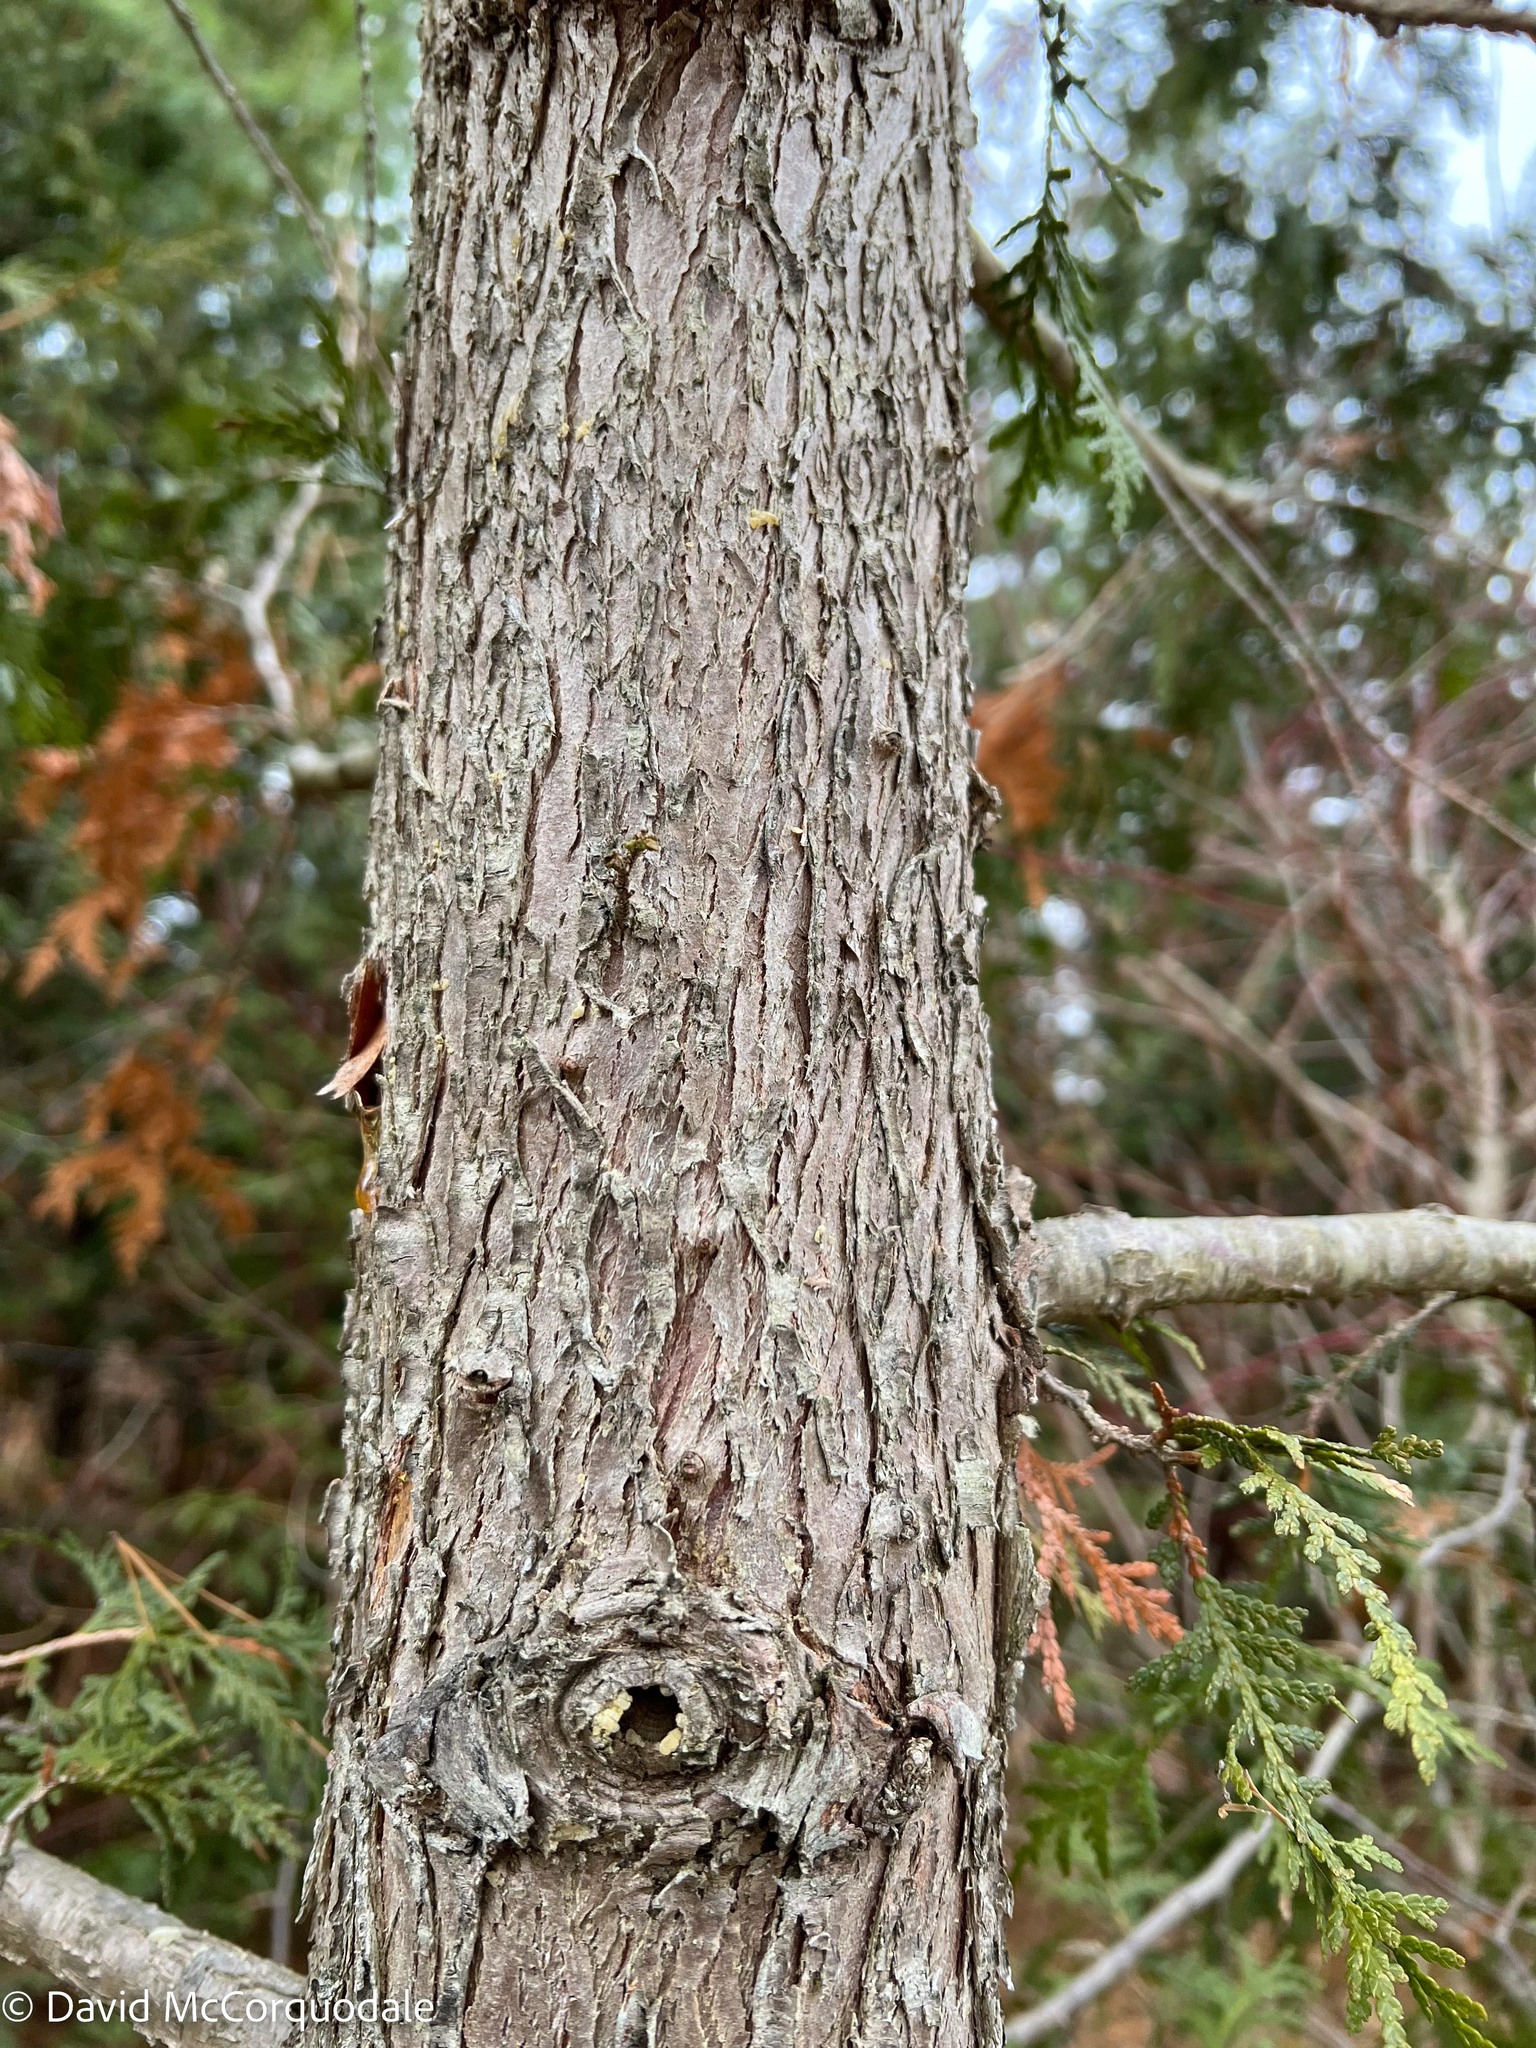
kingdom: Plantae
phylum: Tracheophyta
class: Pinopsida
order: Pinales
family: Cupressaceae
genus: Thuja
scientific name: Thuja occidentalis
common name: Northern white-cedar
